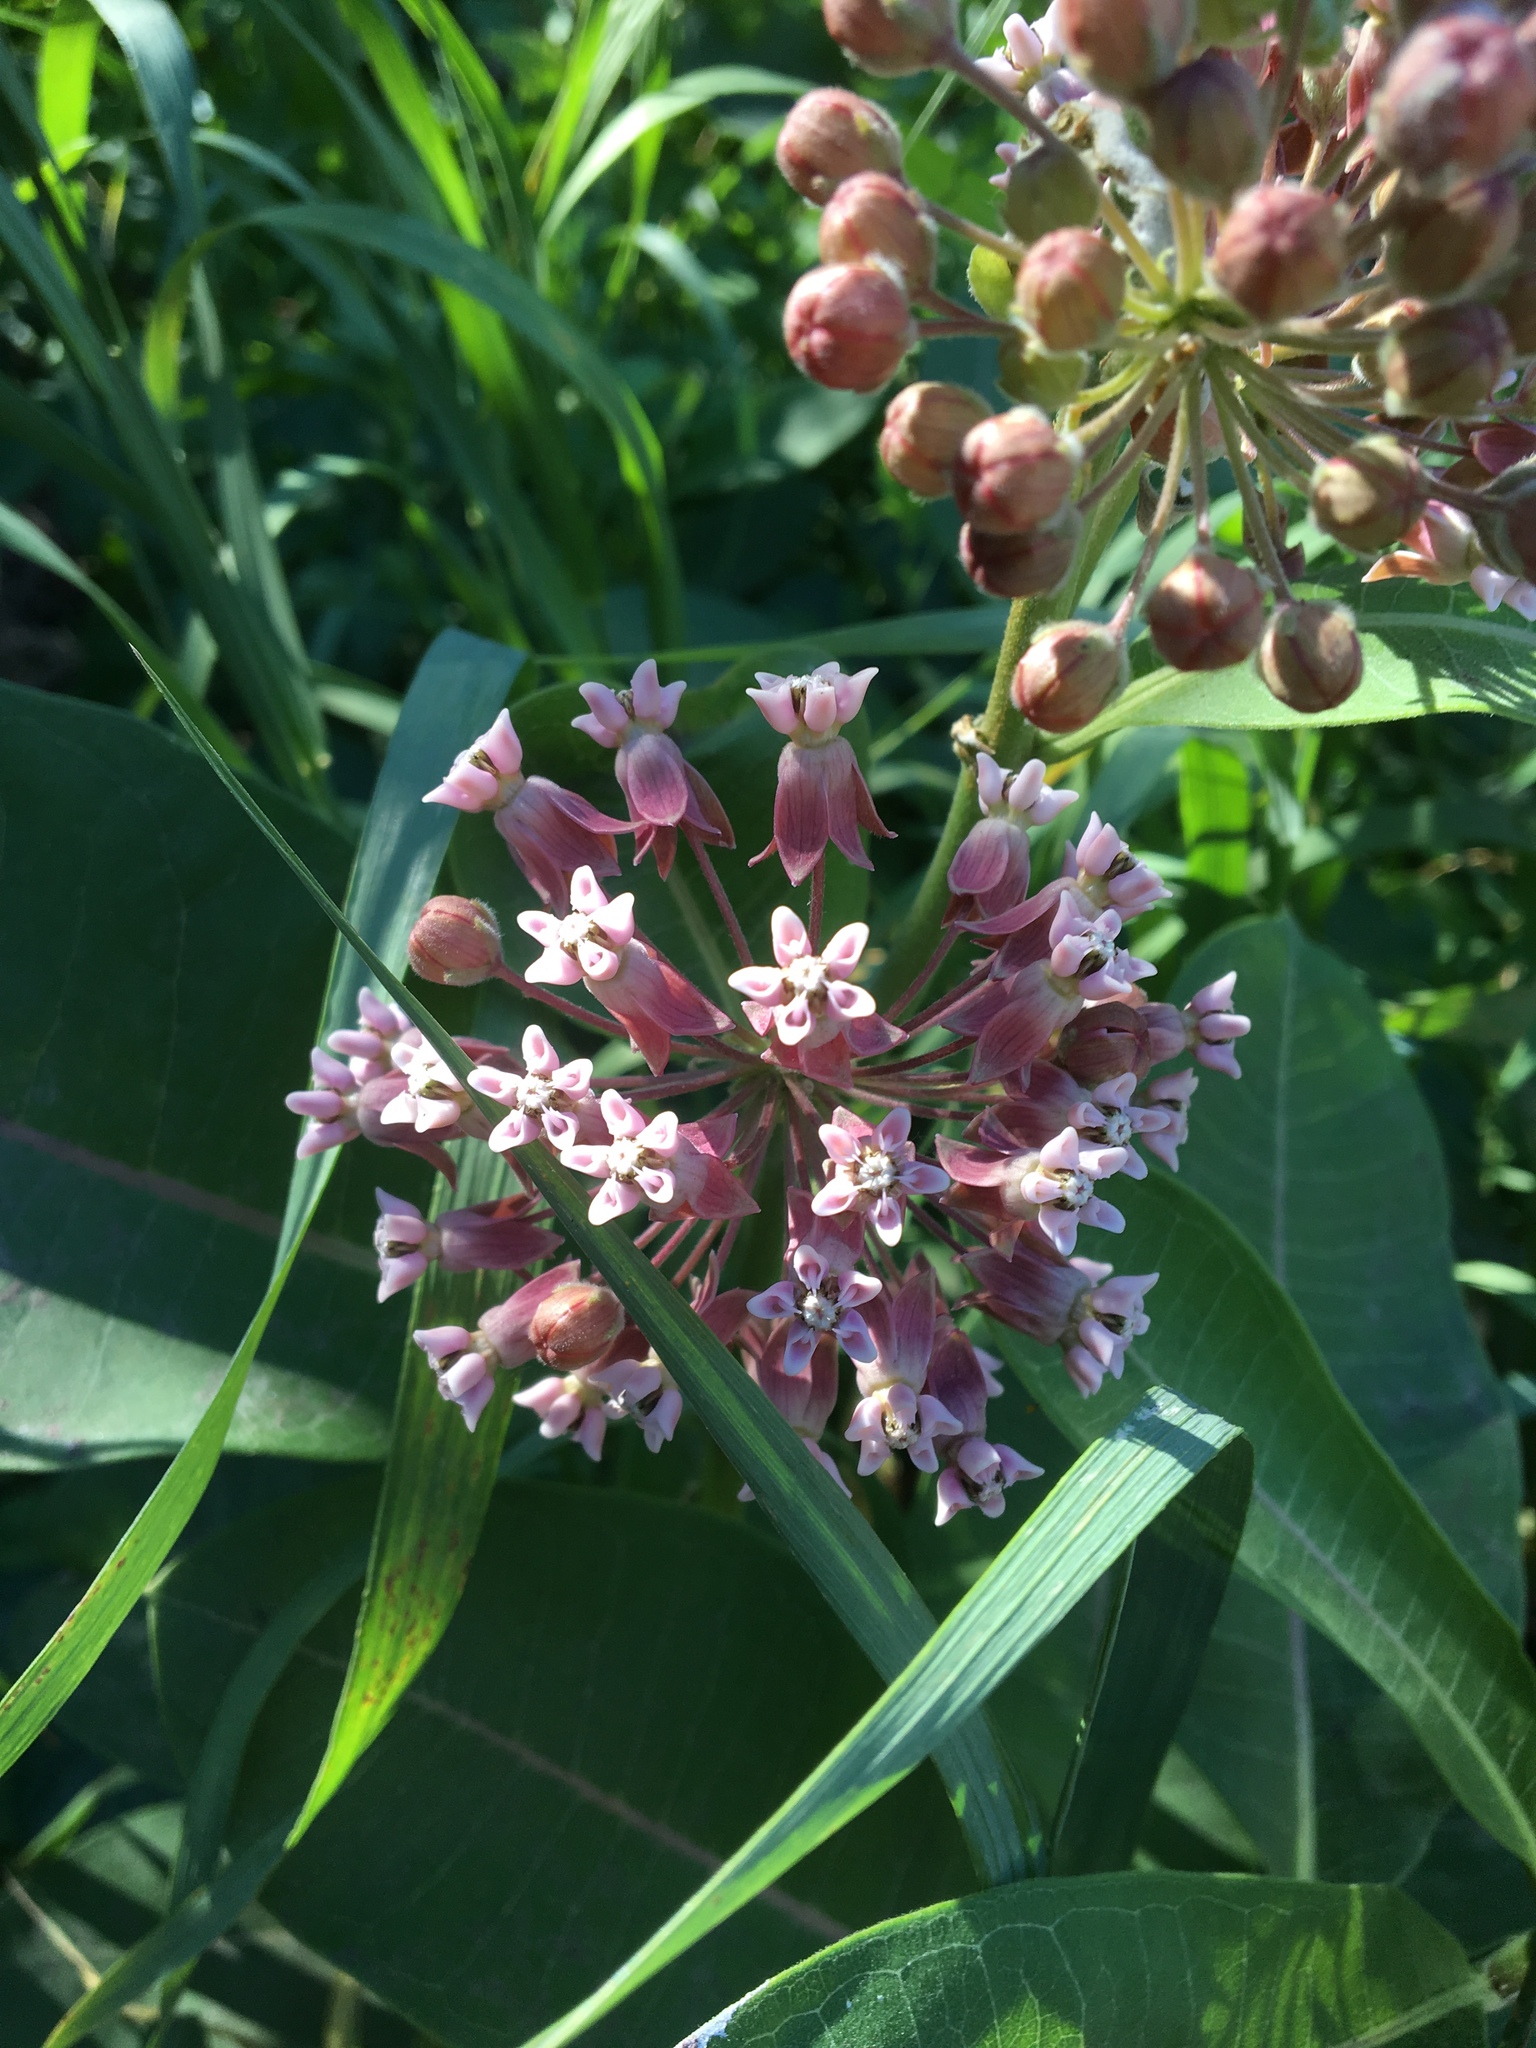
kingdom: Plantae
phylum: Tracheophyta
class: Magnoliopsida
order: Gentianales
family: Apocynaceae
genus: Asclepias
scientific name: Asclepias syriaca
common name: Common milkweed
